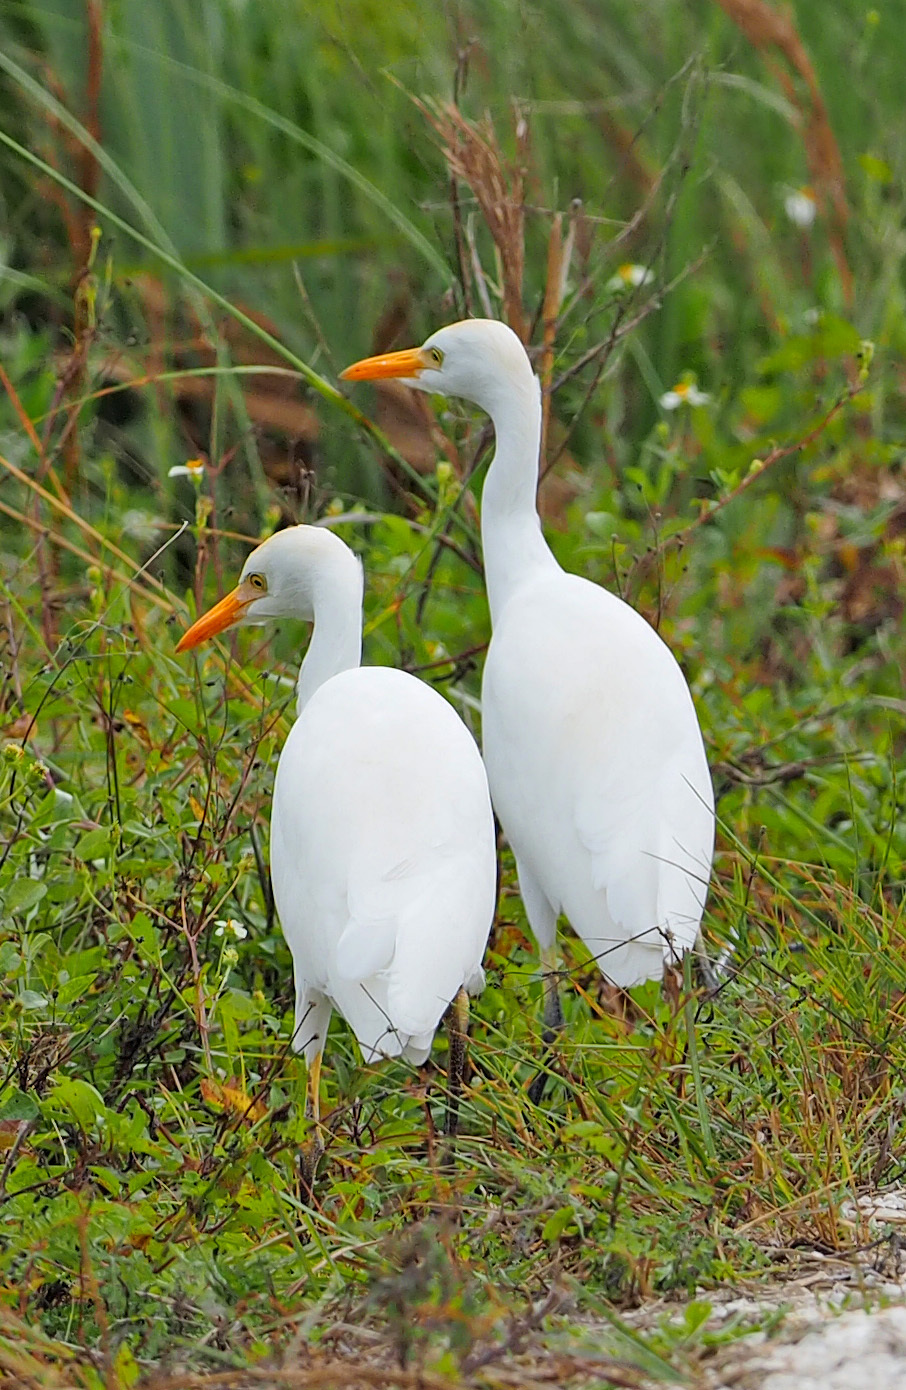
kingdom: Animalia
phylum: Chordata
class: Aves
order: Pelecaniformes
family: Ardeidae
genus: Bubulcus
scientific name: Bubulcus ibis
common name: Cattle egret
